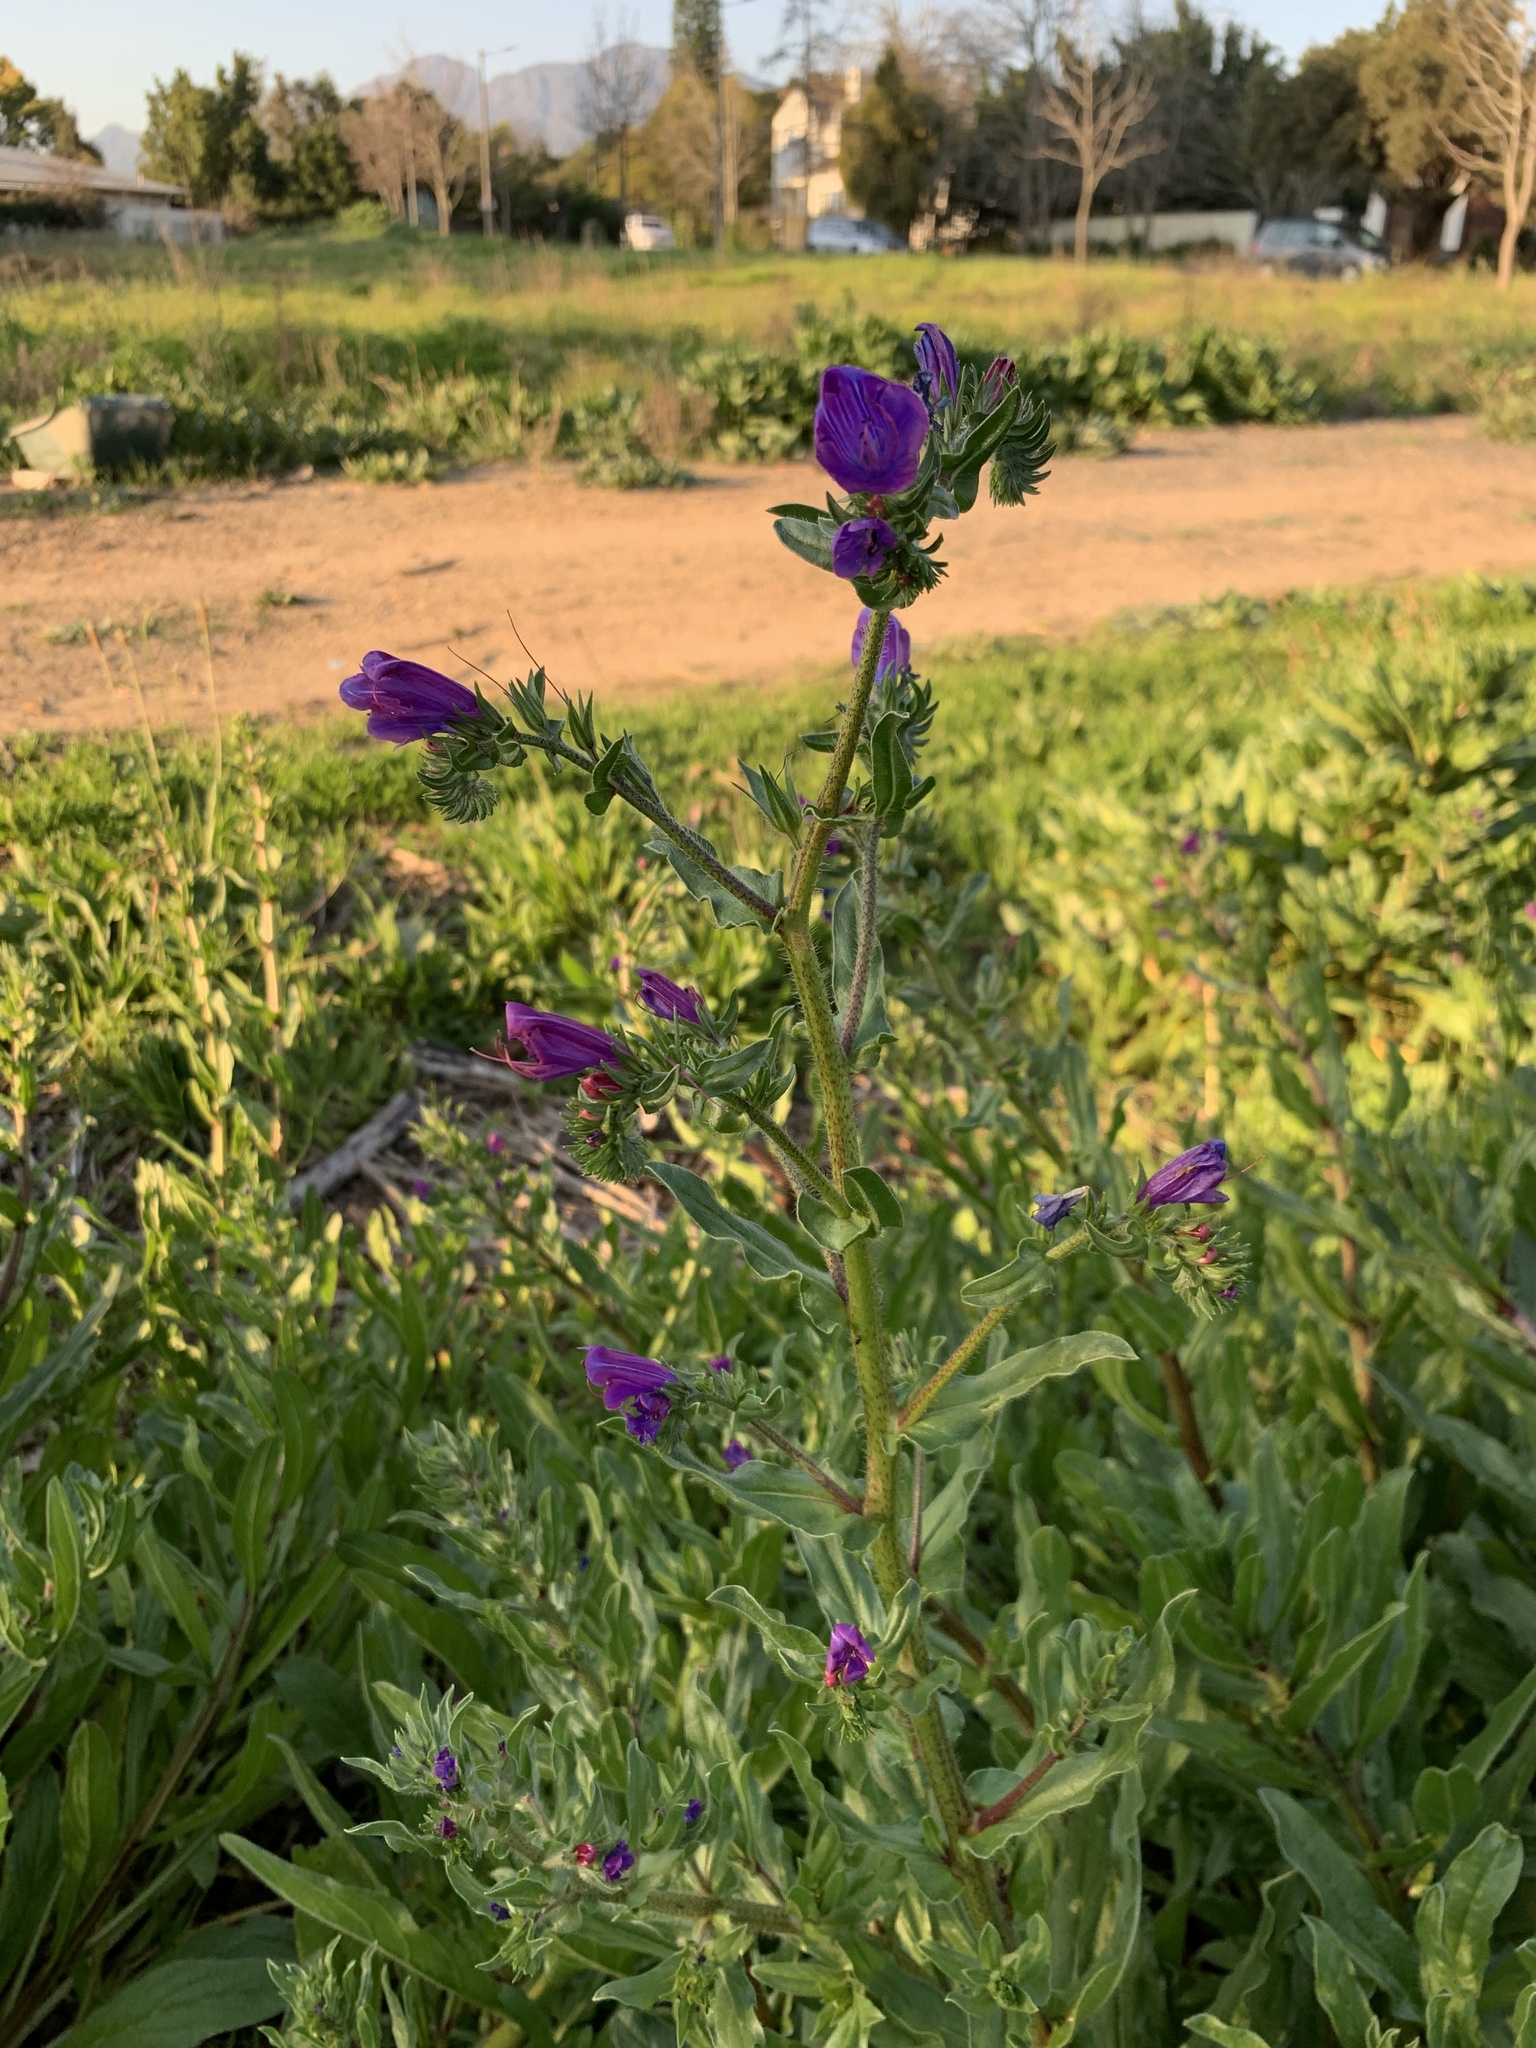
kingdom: Plantae
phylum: Tracheophyta
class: Magnoliopsida
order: Boraginales
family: Boraginaceae
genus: Echium
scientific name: Echium plantagineum
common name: Purple viper's-bugloss
